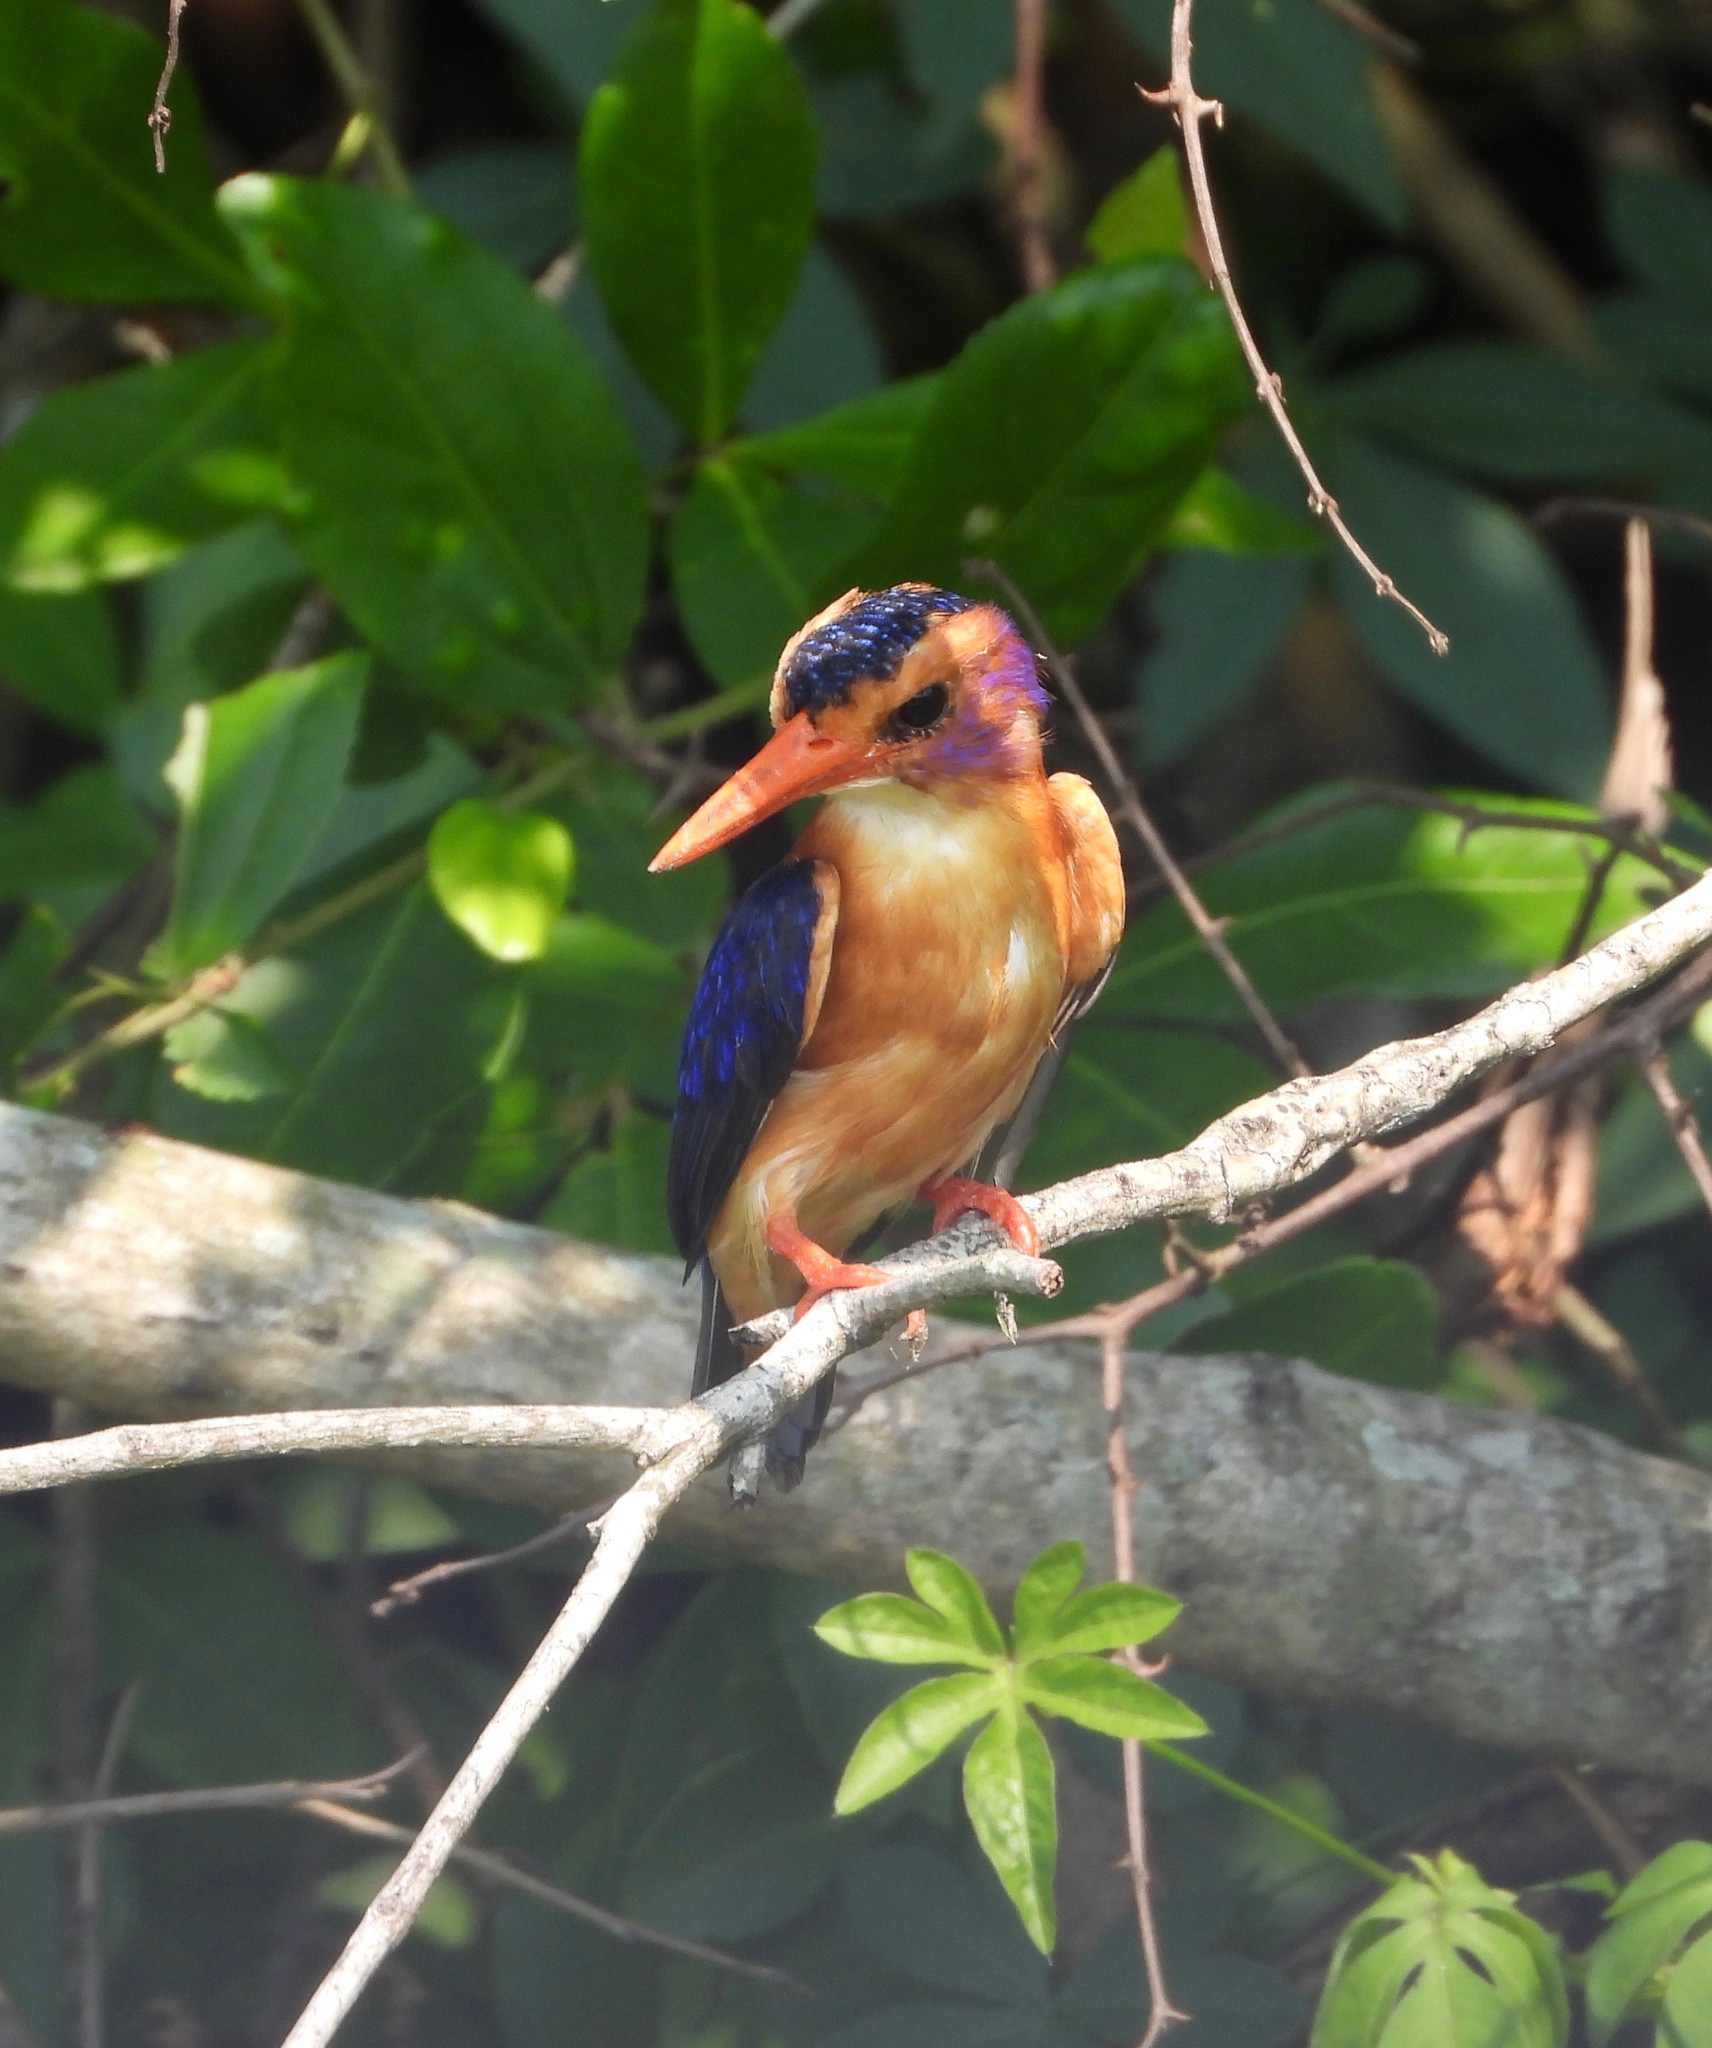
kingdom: Animalia
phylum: Chordata
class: Aves
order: Coraciiformes
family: Alcedinidae
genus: Ispidina
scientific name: Ispidina picta
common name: African pygmy-kingfisher
